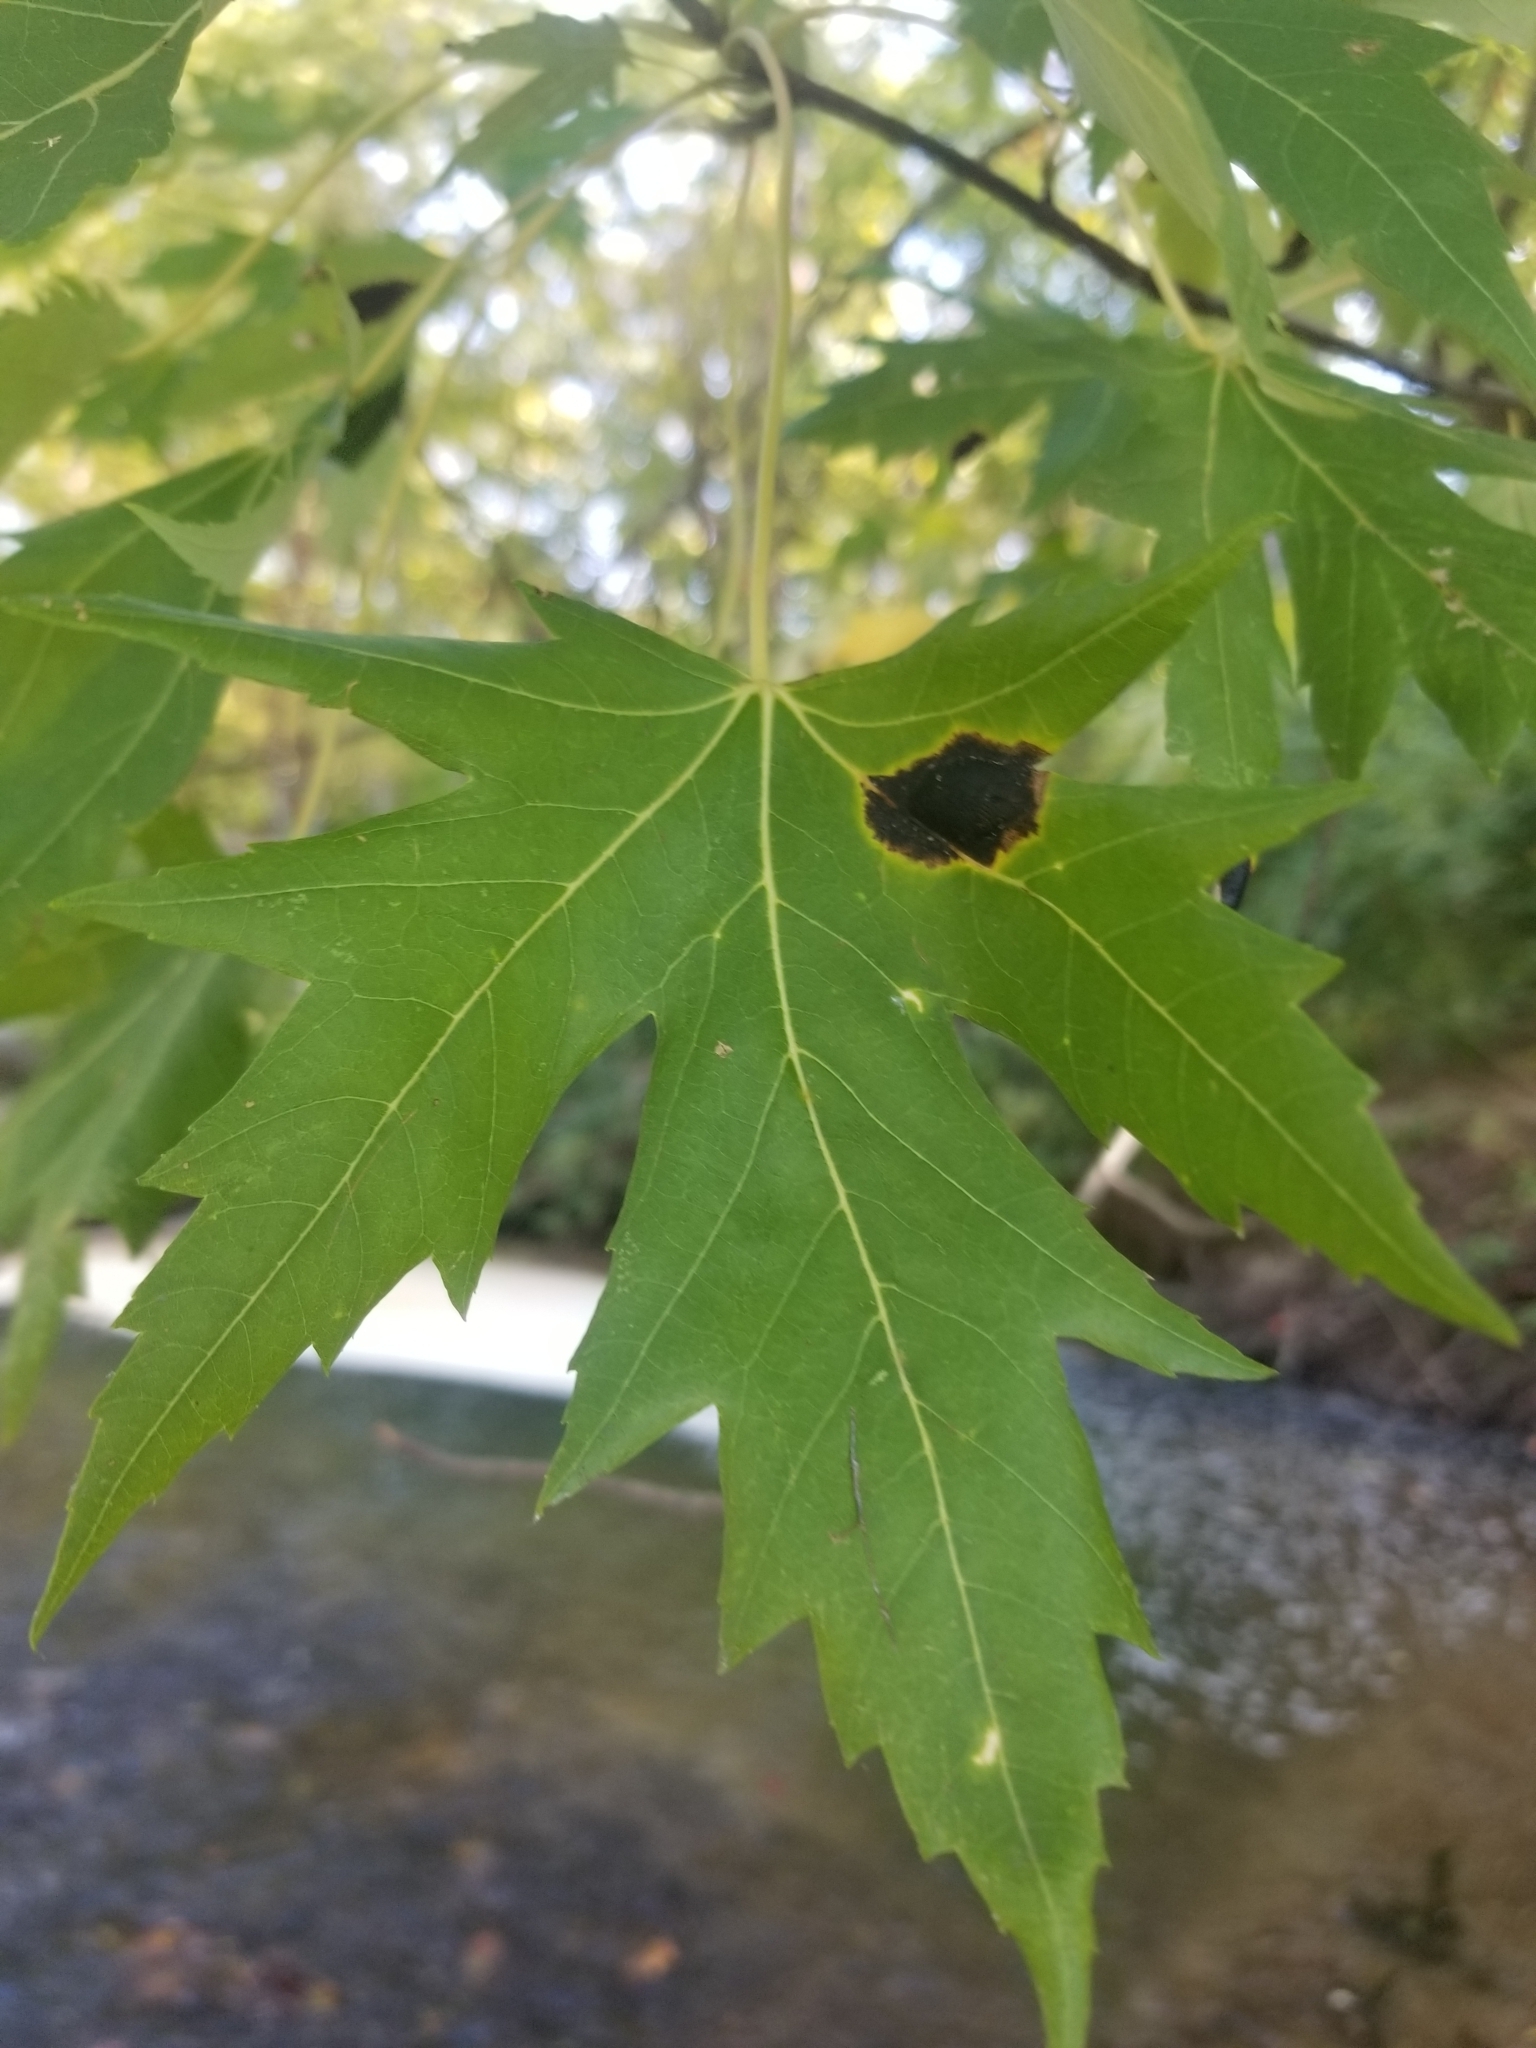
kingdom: Fungi
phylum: Ascomycota
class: Leotiomycetes
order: Rhytismatales
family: Rhytismataceae
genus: Rhytisma
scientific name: Rhytisma americanum
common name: American tar spot
